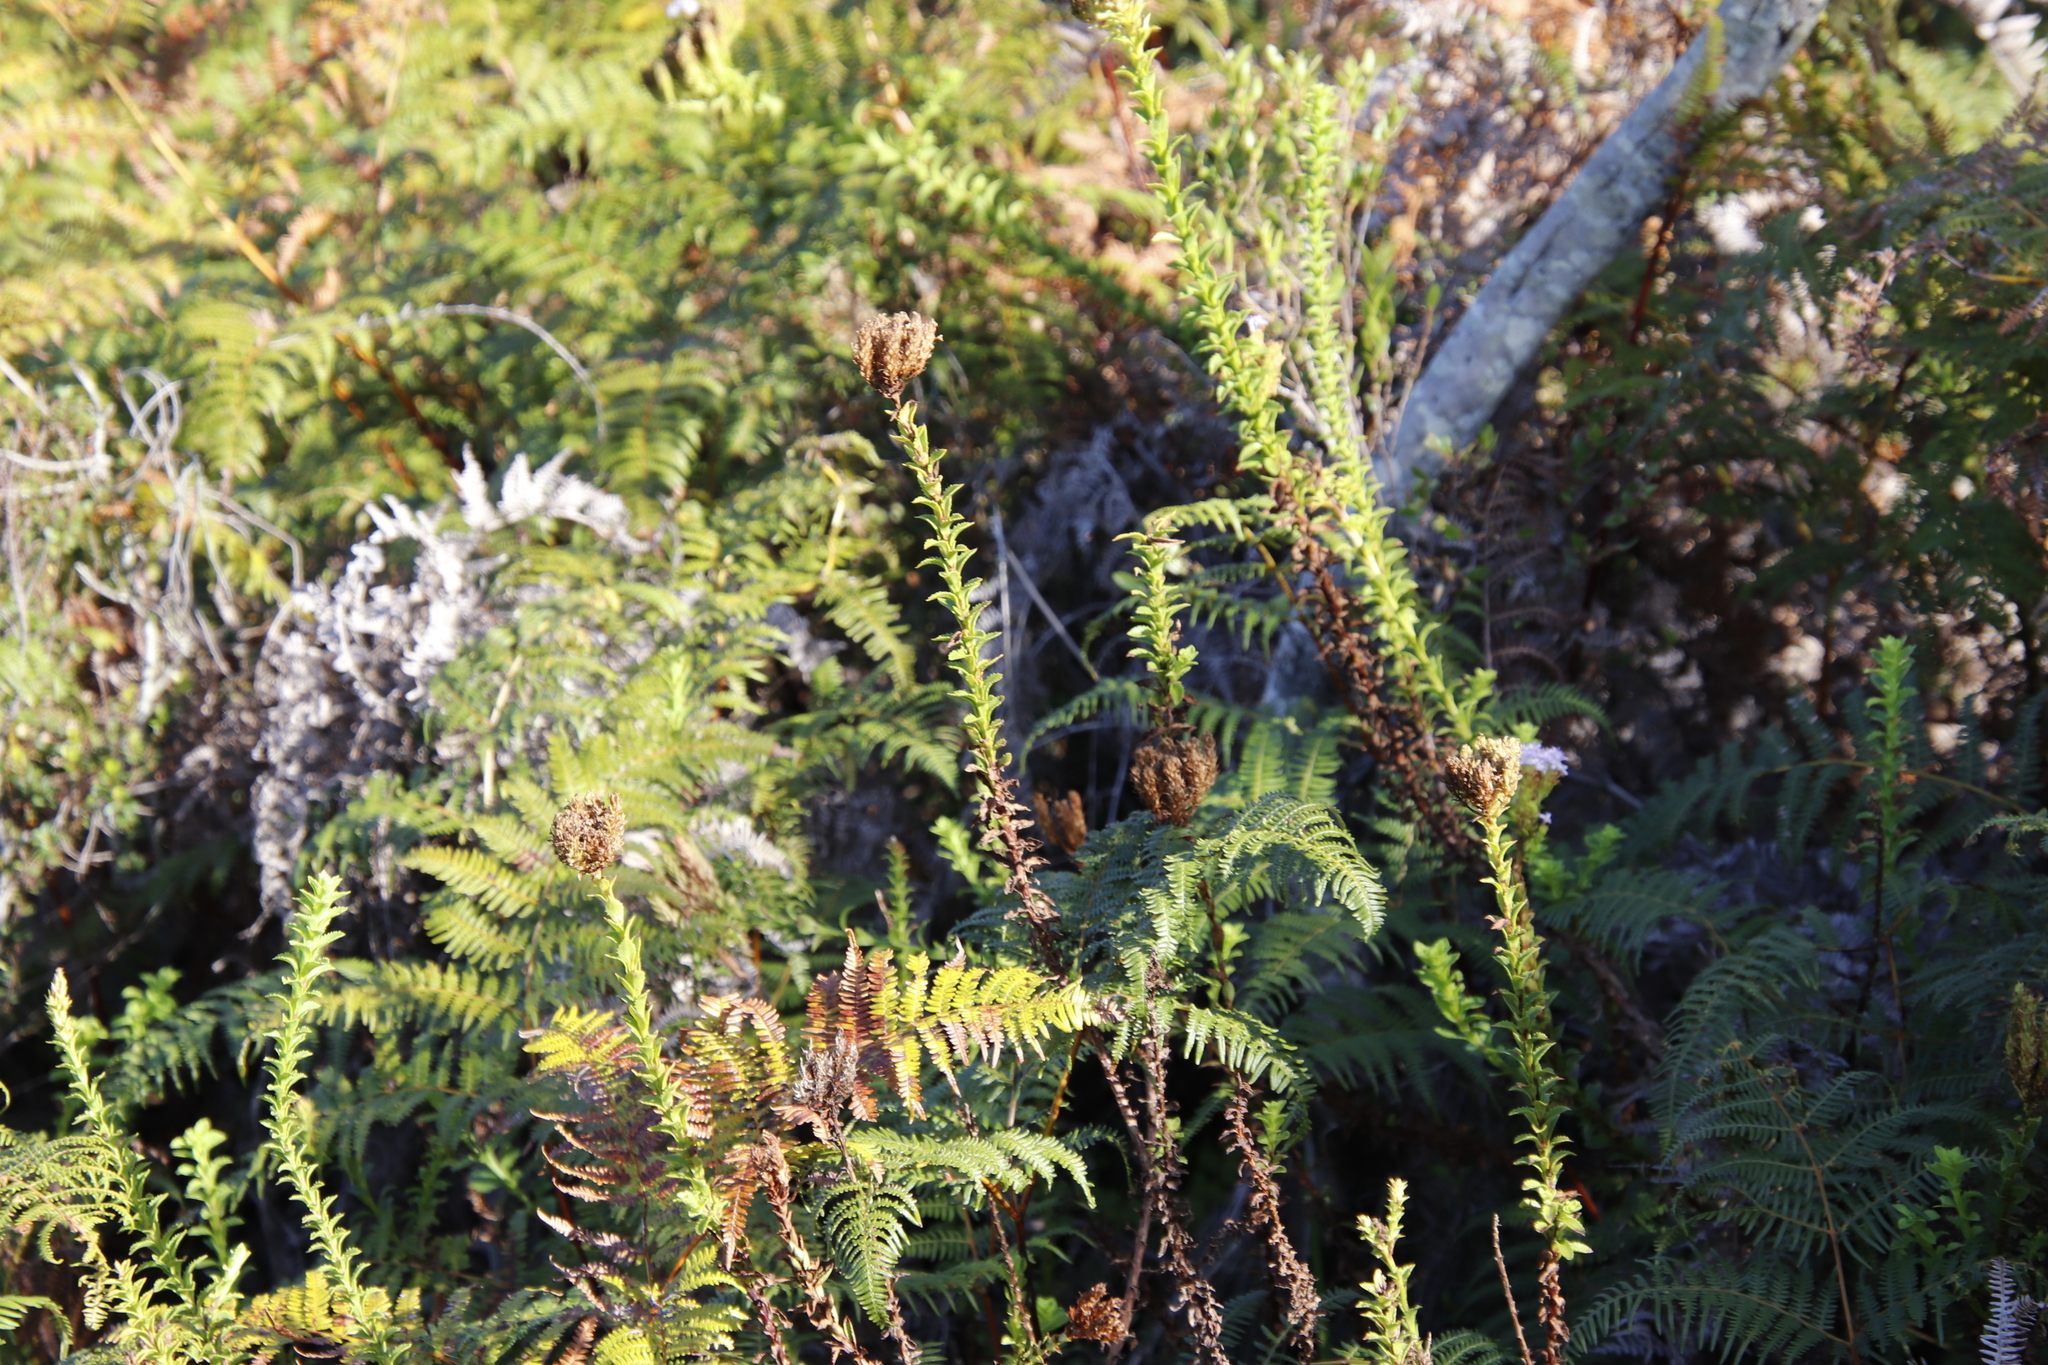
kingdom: Plantae
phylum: Tracheophyta
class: Magnoliopsida
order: Lamiales
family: Scrophulariaceae
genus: Pseudoselago
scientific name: Pseudoselago serrata
